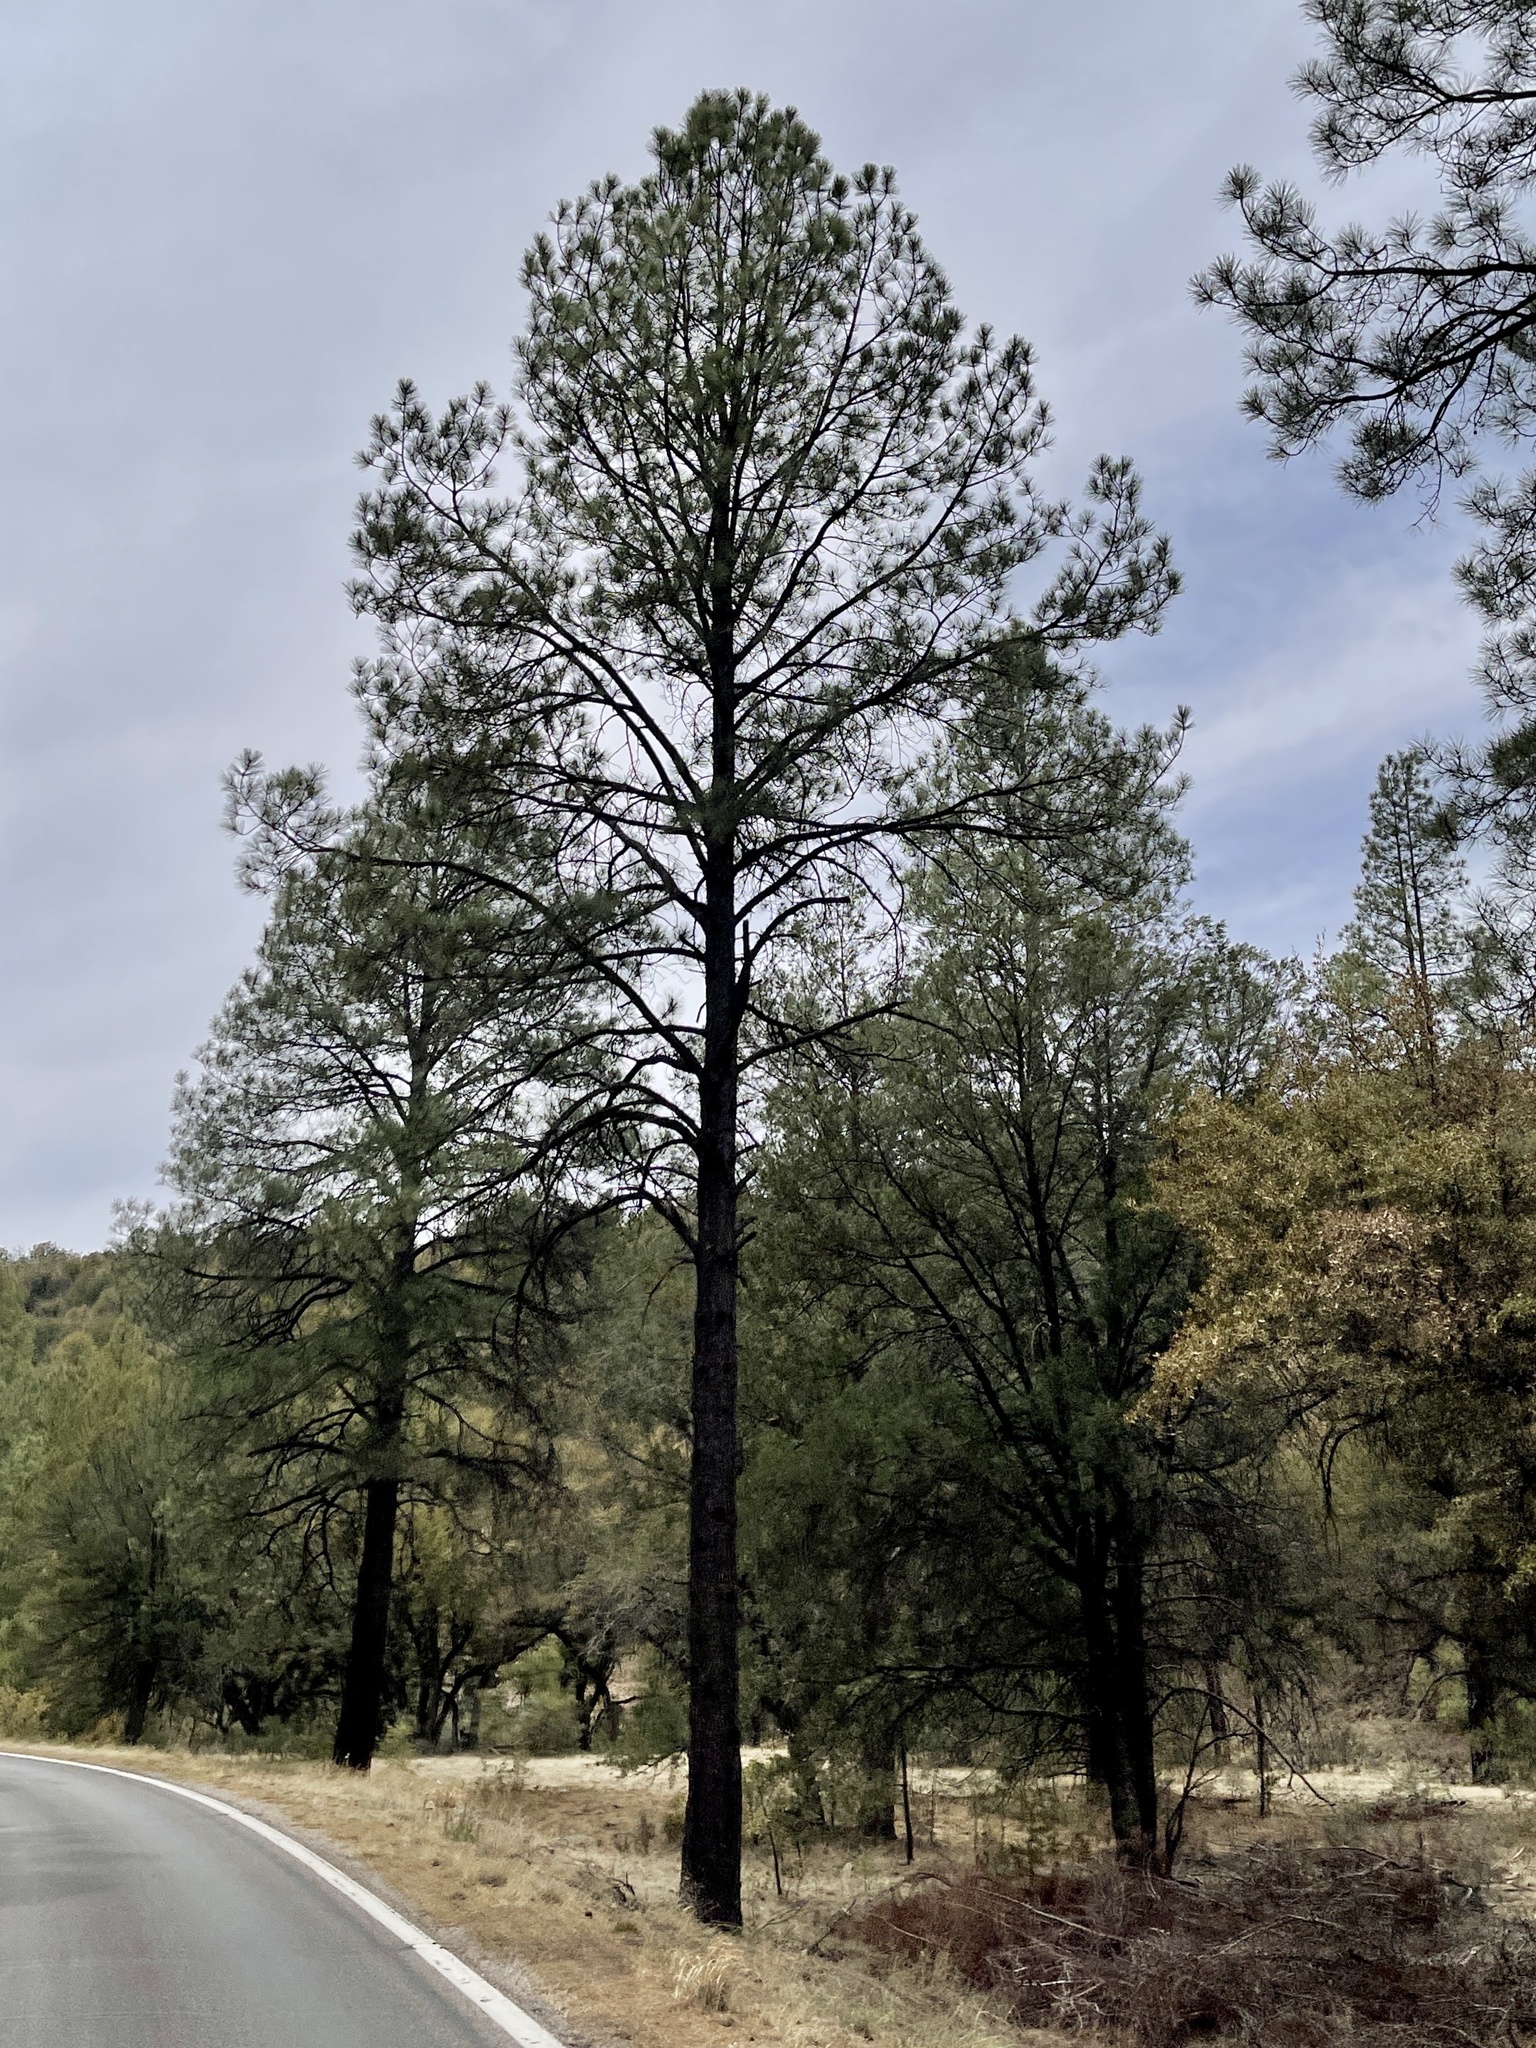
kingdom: Plantae
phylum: Tracheophyta
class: Pinopsida
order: Pinales
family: Pinaceae
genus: Pinus
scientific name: Pinus ponderosa
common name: Western yellow-pine
